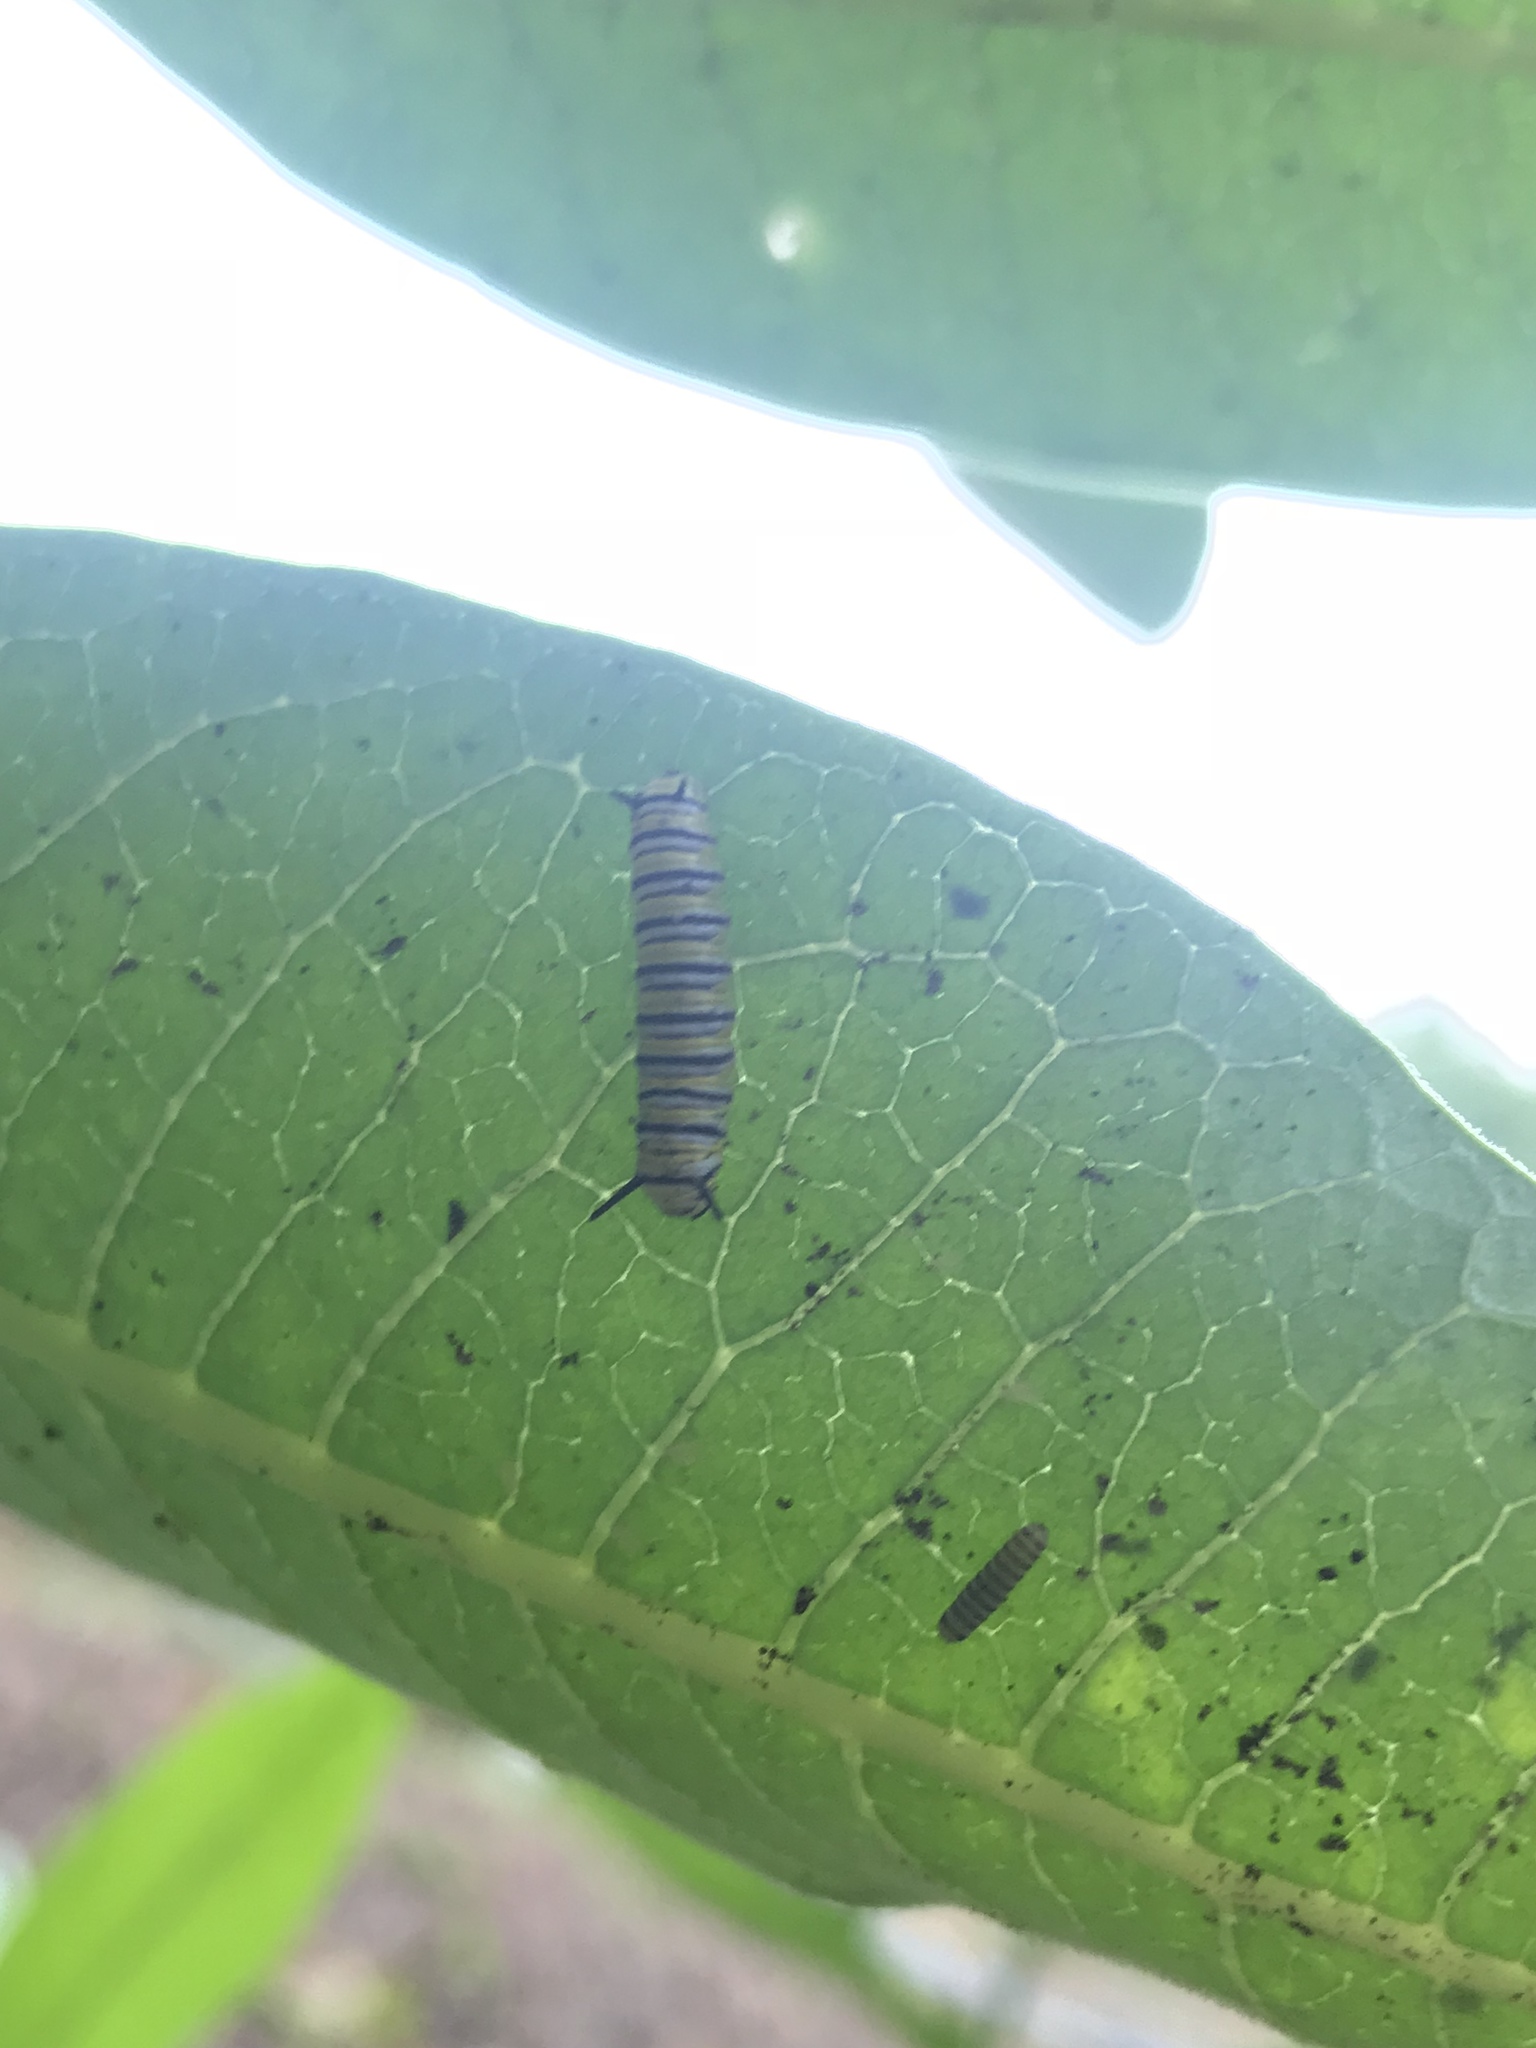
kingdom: Animalia
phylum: Arthropoda
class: Insecta
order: Lepidoptera
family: Nymphalidae
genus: Danaus
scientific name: Danaus plexippus
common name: Monarch
